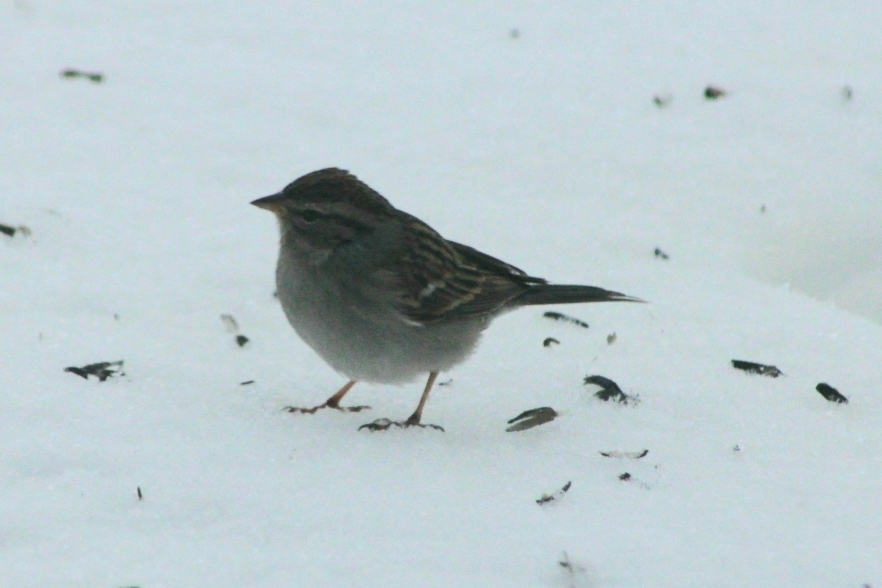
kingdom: Animalia
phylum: Chordata
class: Aves
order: Passeriformes
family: Passerellidae
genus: Spizella
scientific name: Spizella passerina
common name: Chipping sparrow
